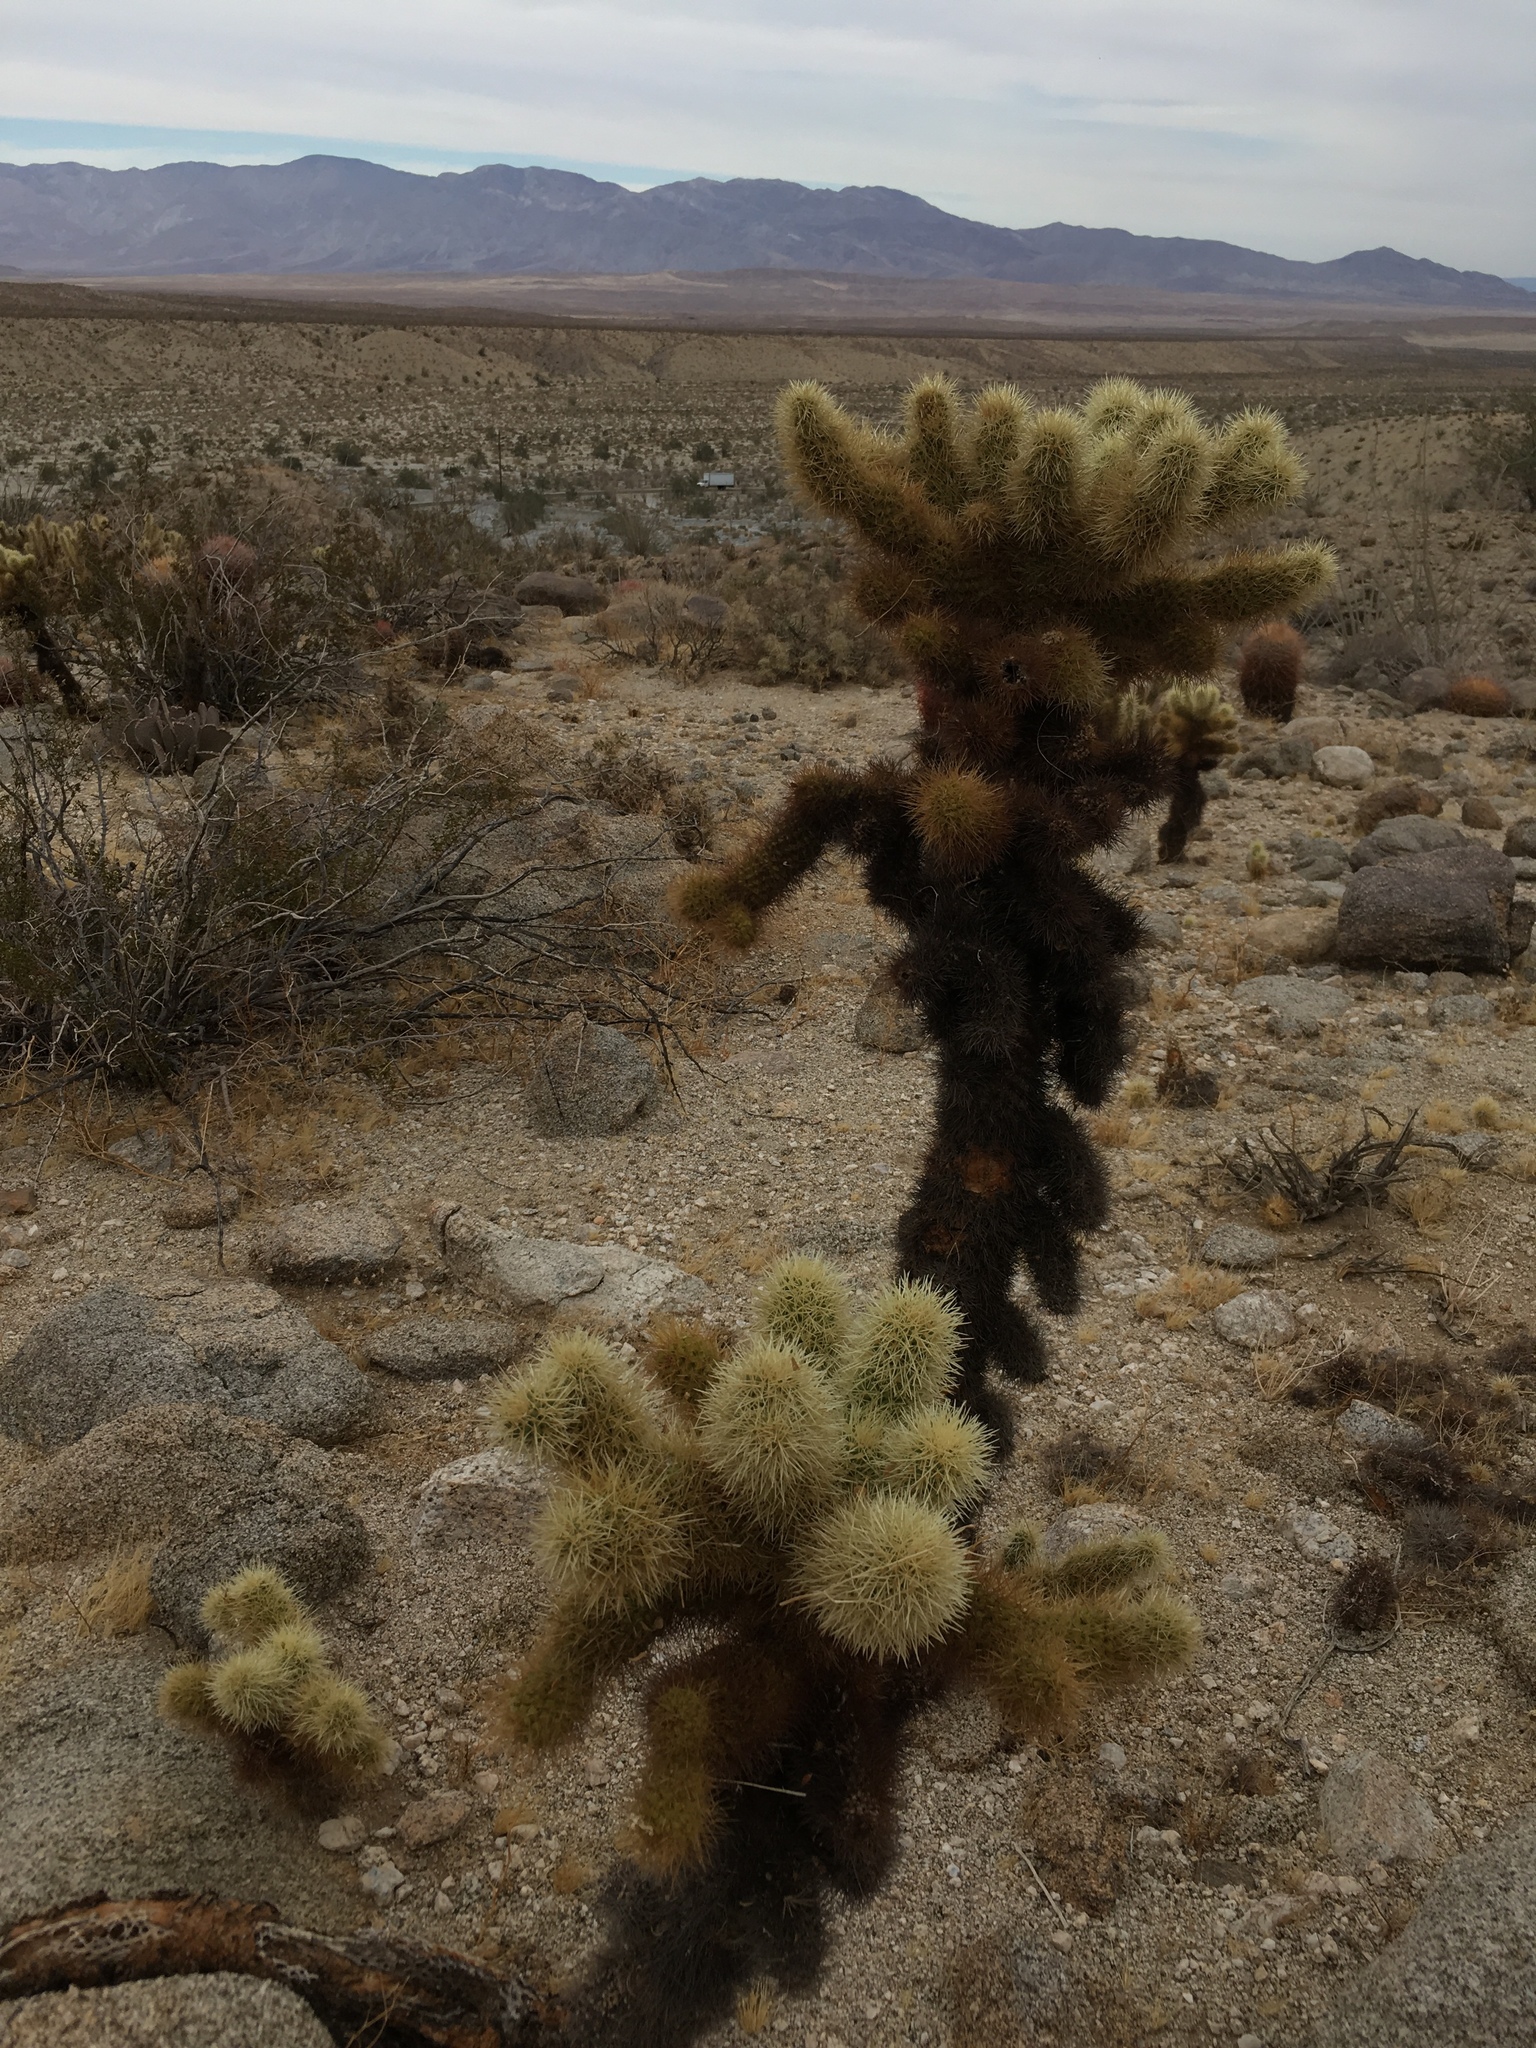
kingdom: Plantae
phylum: Tracheophyta
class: Magnoliopsida
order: Caryophyllales
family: Cactaceae
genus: Cylindropuntia
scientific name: Cylindropuntia fosbergii
